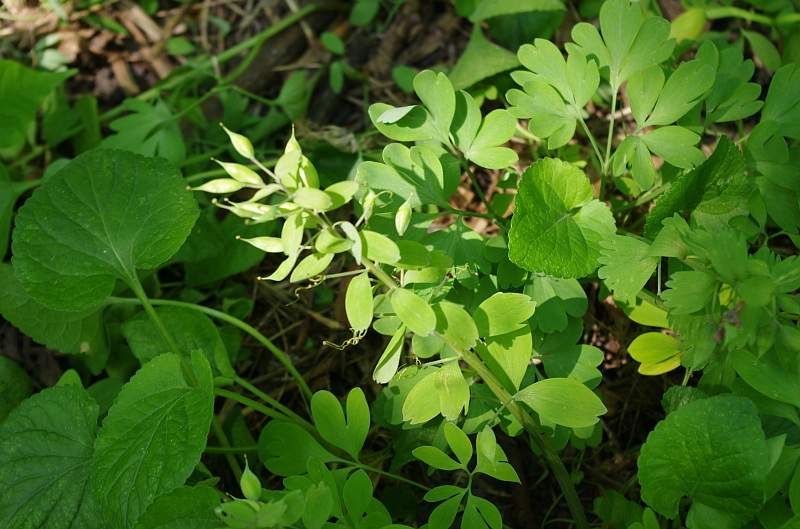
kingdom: Plantae
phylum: Tracheophyta
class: Magnoliopsida
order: Ranunculales
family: Papaveraceae
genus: Corydalis
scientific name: Corydalis solida
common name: Bird-in-a-bush
